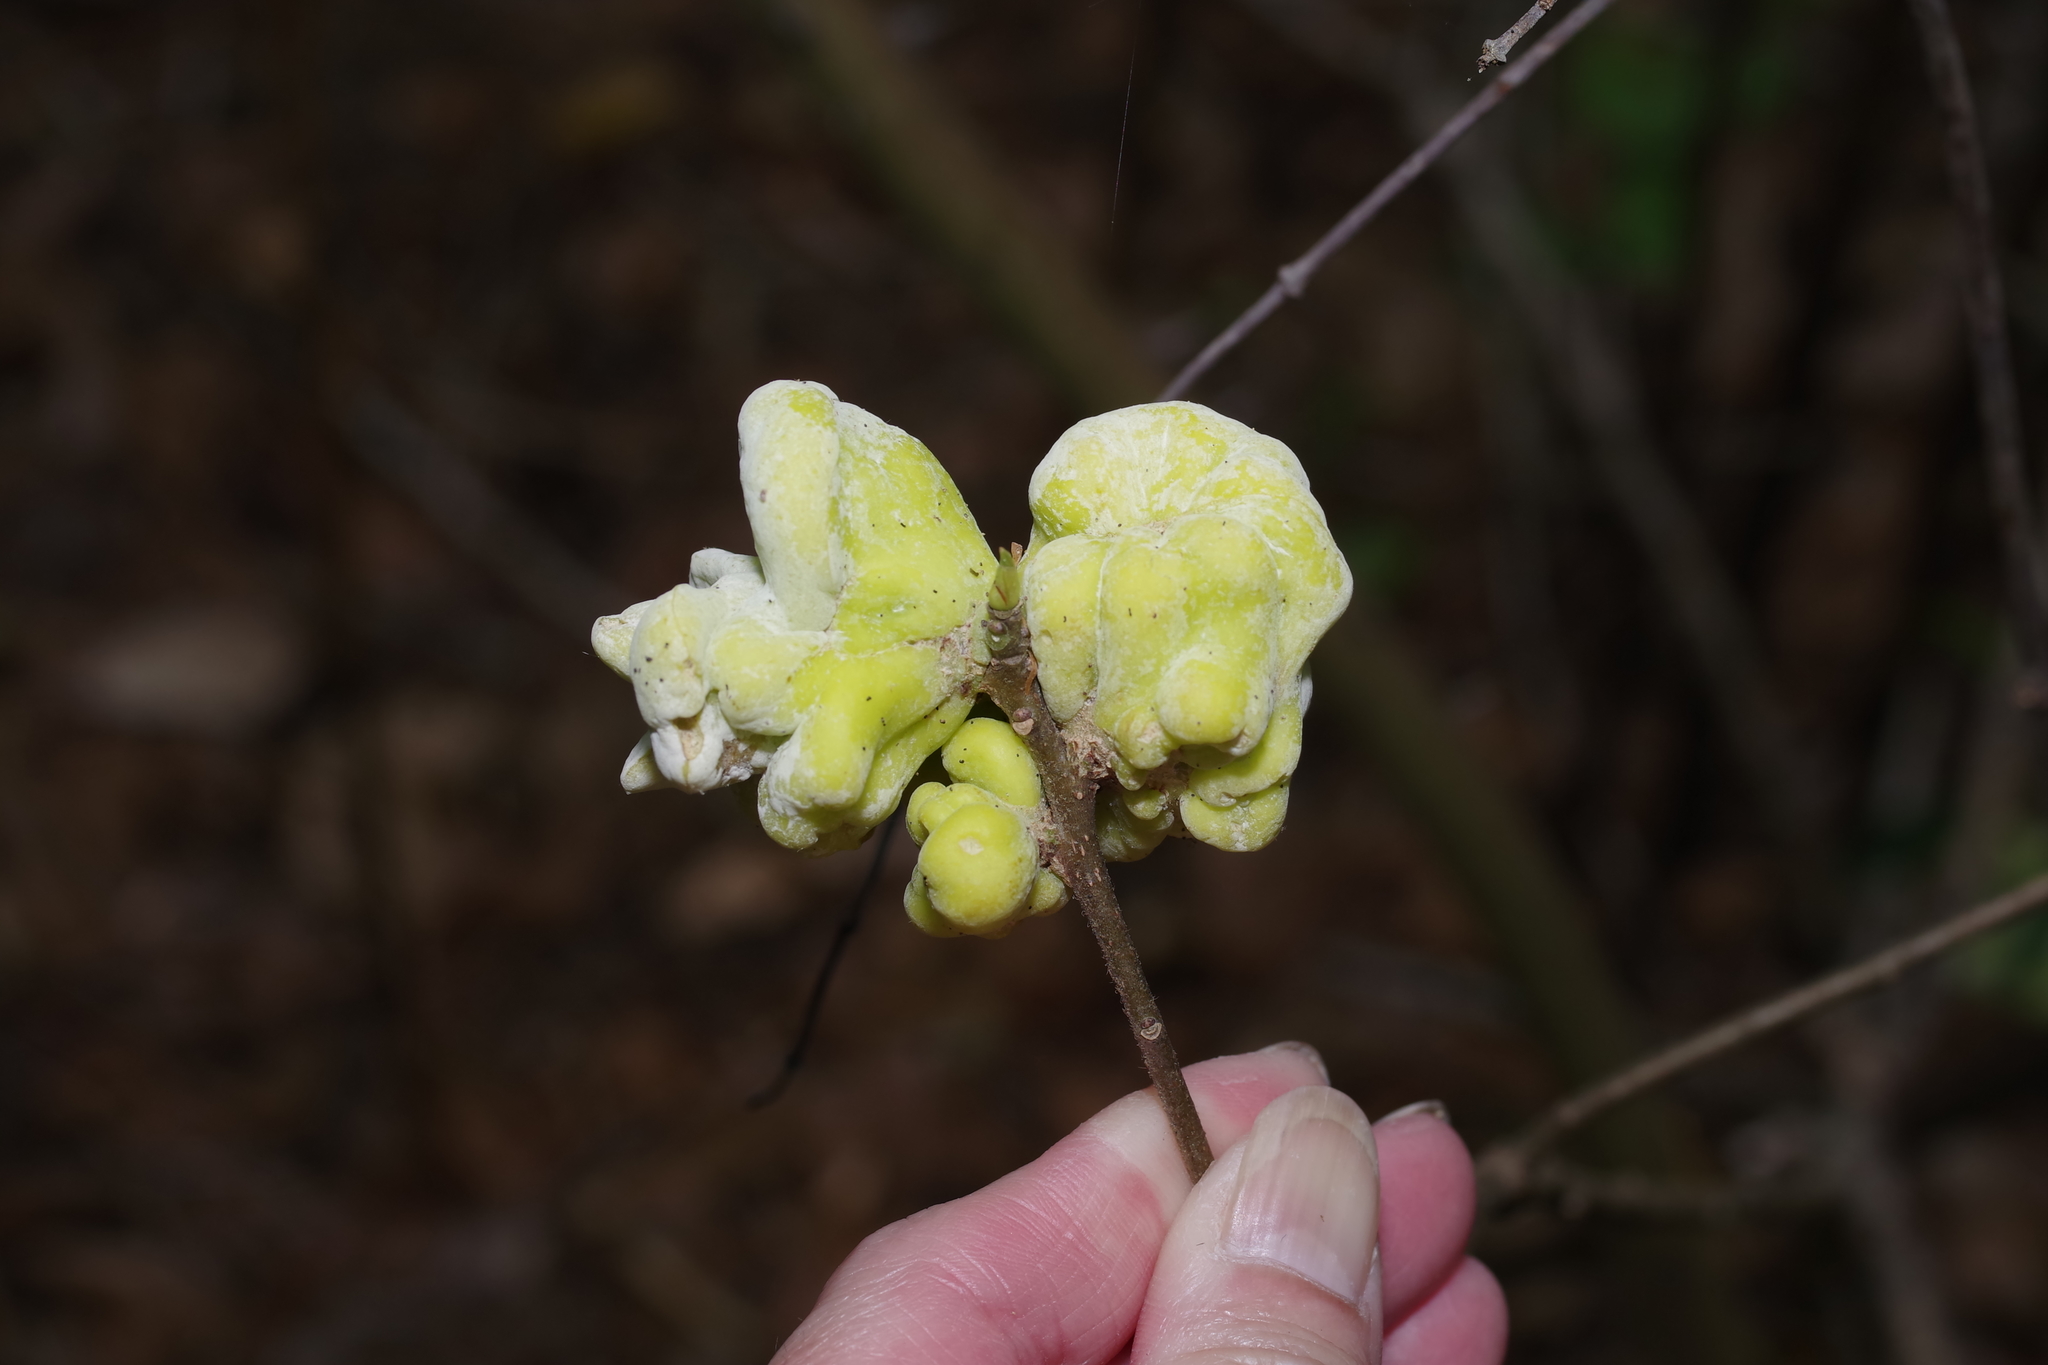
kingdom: Fungi
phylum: Basidiomycota
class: Exobasidiomycetes
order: Exobasidiales
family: Exobasidiaceae
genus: Exobasidium
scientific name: Exobasidium symploci
